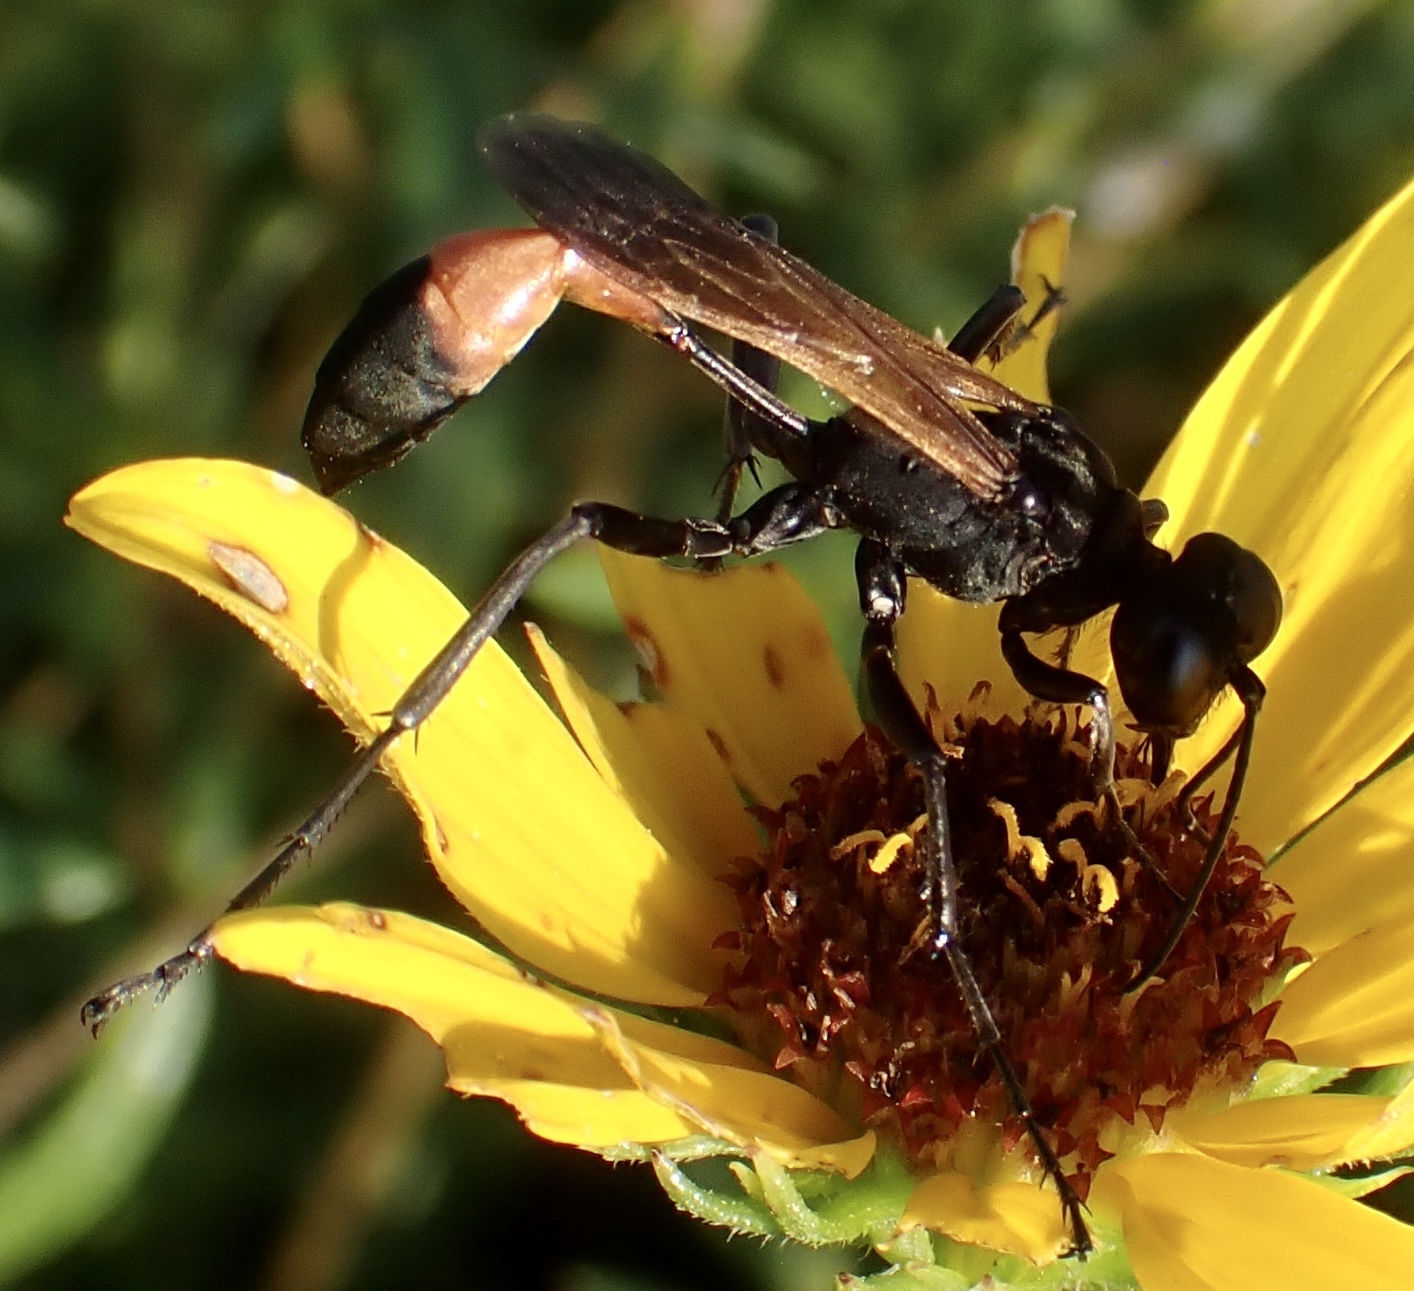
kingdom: Animalia
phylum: Arthropoda
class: Insecta
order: Hymenoptera
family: Sphecidae
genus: Ammophila
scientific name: Ammophila pictipennis
